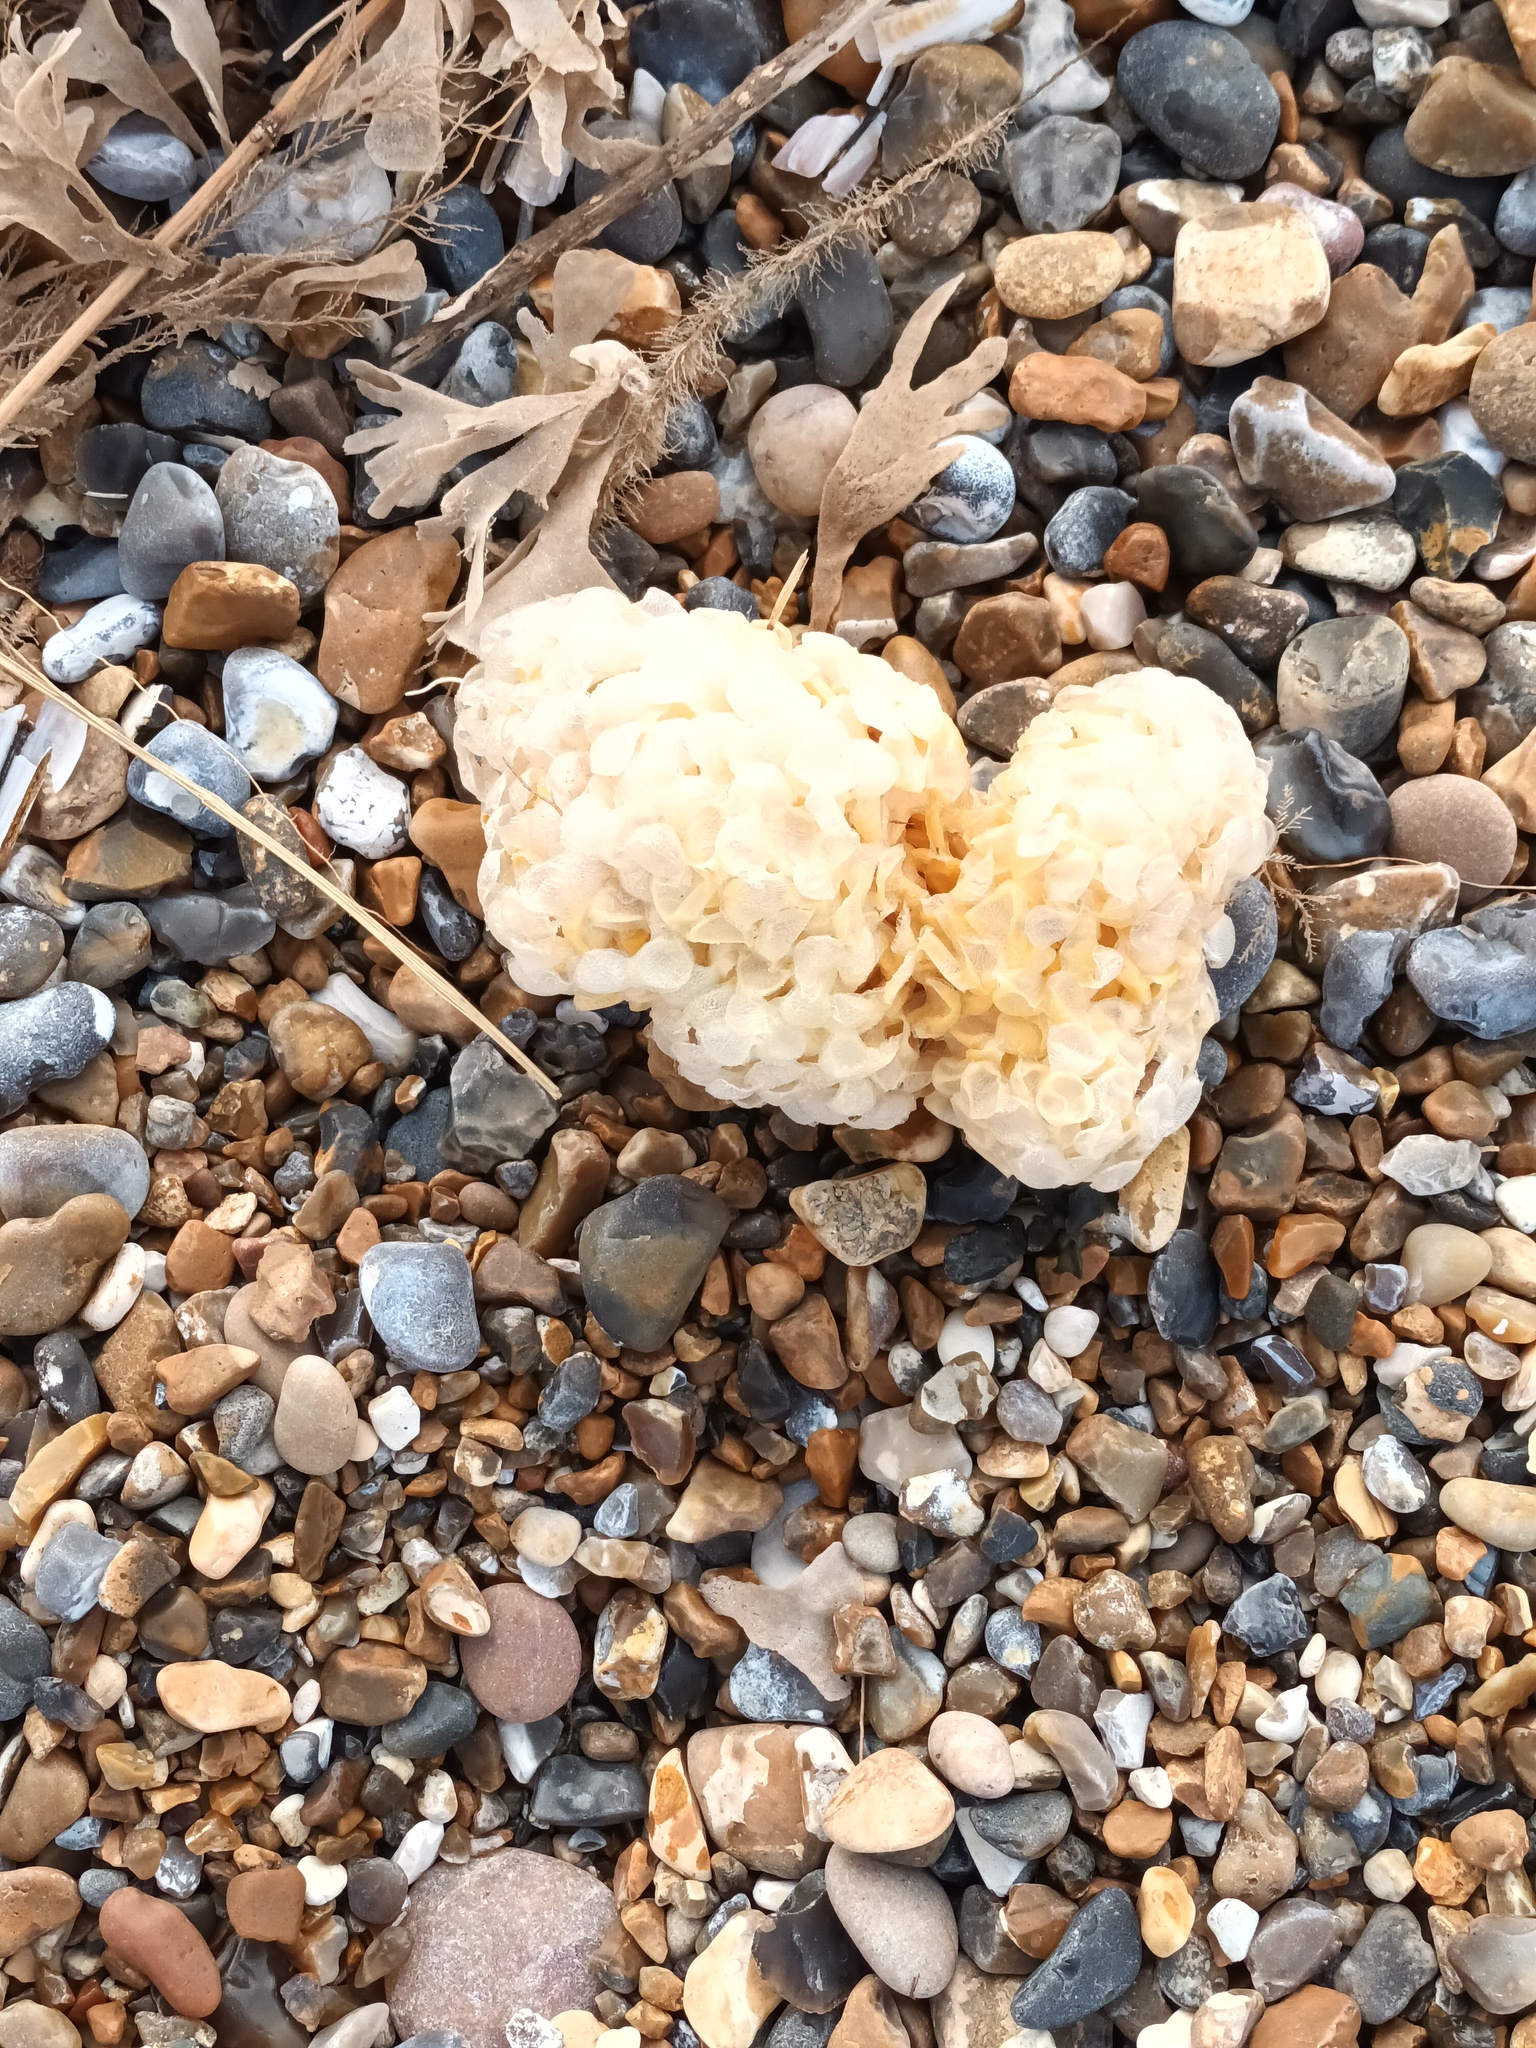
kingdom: Animalia
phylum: Mollusca
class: Gastropoda
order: Neogastropoda
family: Buccinidae
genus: Buccinum
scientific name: Buccinum undatum
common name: Common whelk
